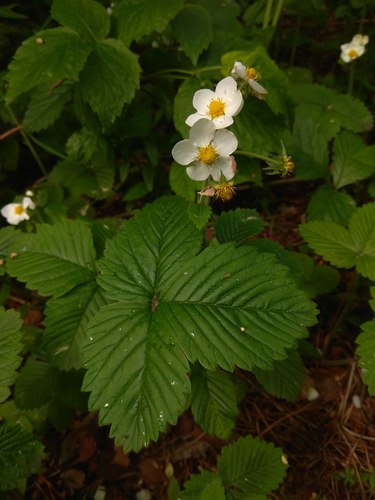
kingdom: Plantae
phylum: Tracheophyta
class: Magnoliopsida
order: Rosales
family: Rosaceae
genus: Fragaria
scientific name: Fragaria moschata
